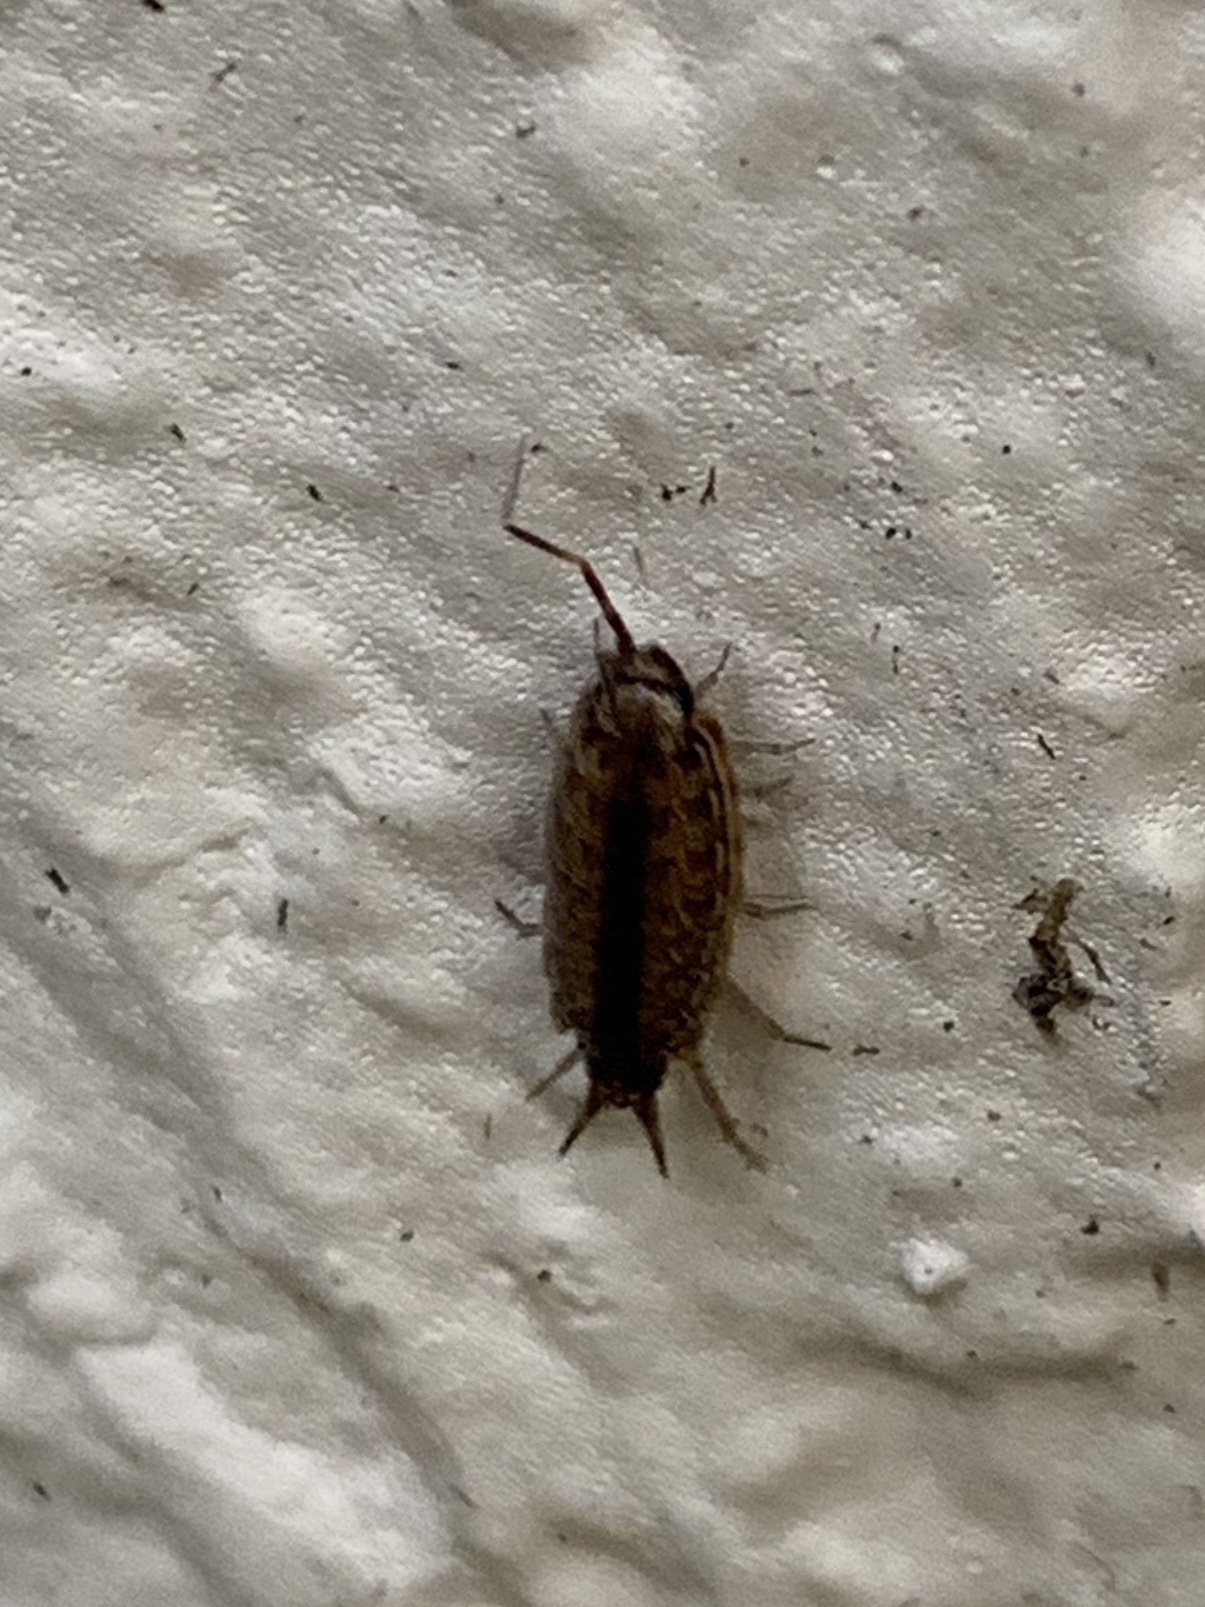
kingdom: Animalia
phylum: Arthropoda
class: Malacostraca
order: Isopoda
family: Philosciidae
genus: Atlantoscia
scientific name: Atlantoscia floridana
